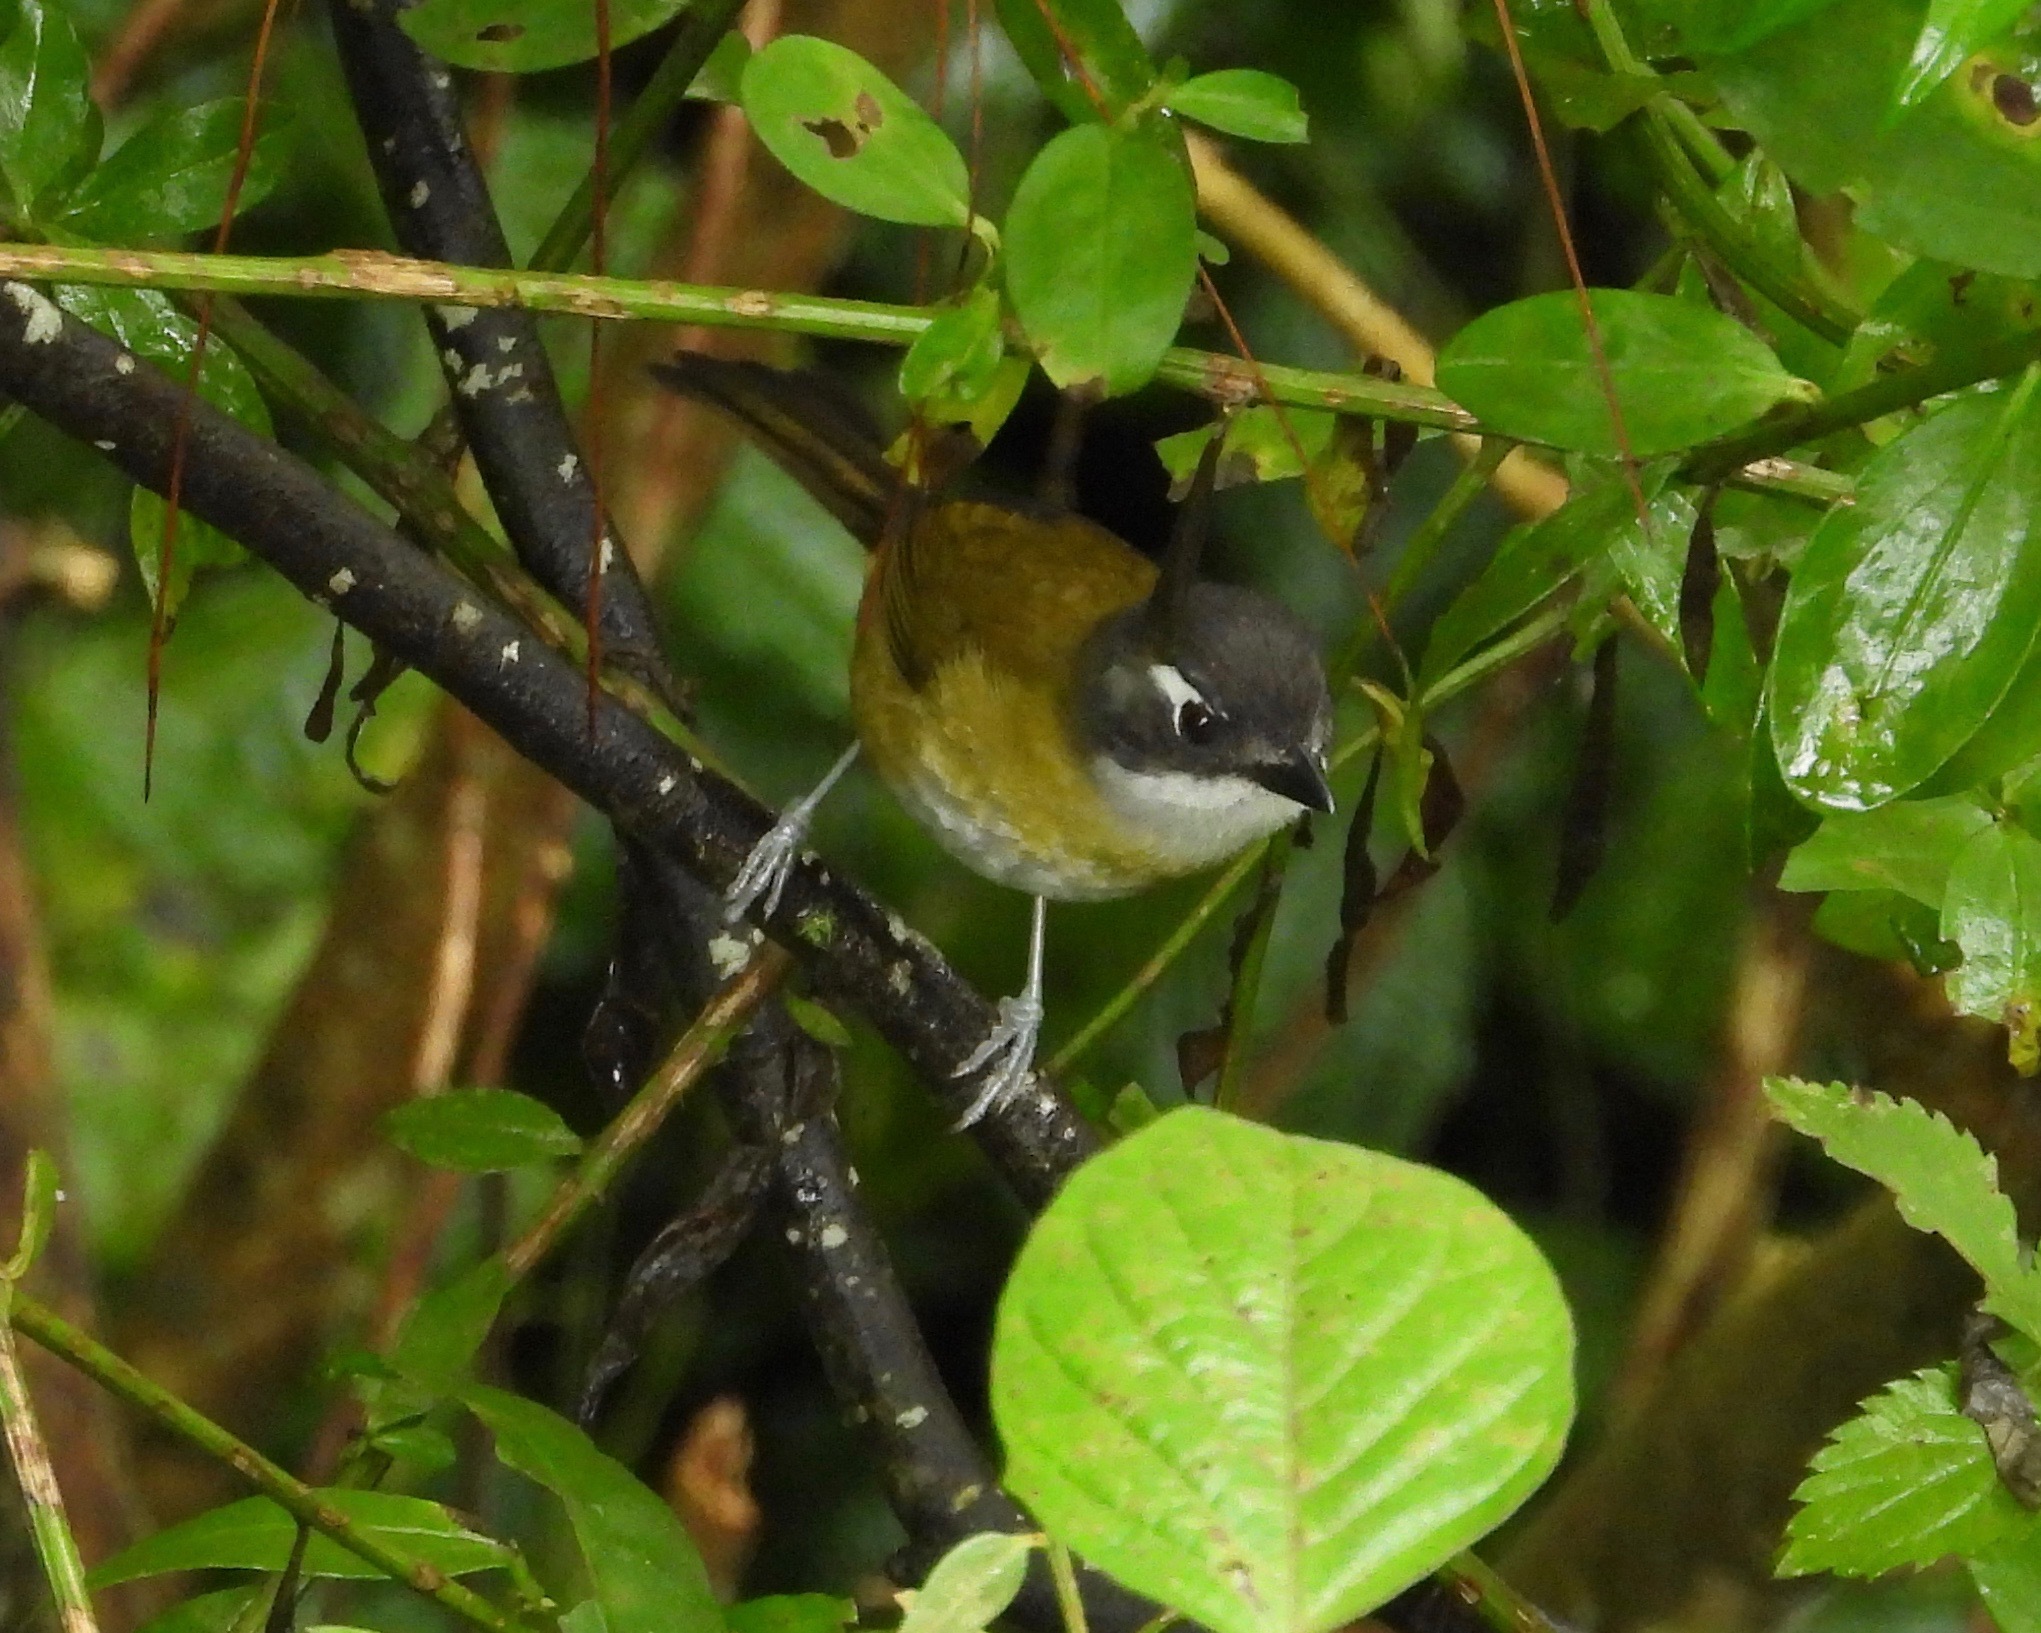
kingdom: Animalia
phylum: Chordata
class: Aves
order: Passeriformes
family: Passerellidae
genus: Chlorospingus
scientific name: Chlorospingus flavopectus
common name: Common chlorospingus
